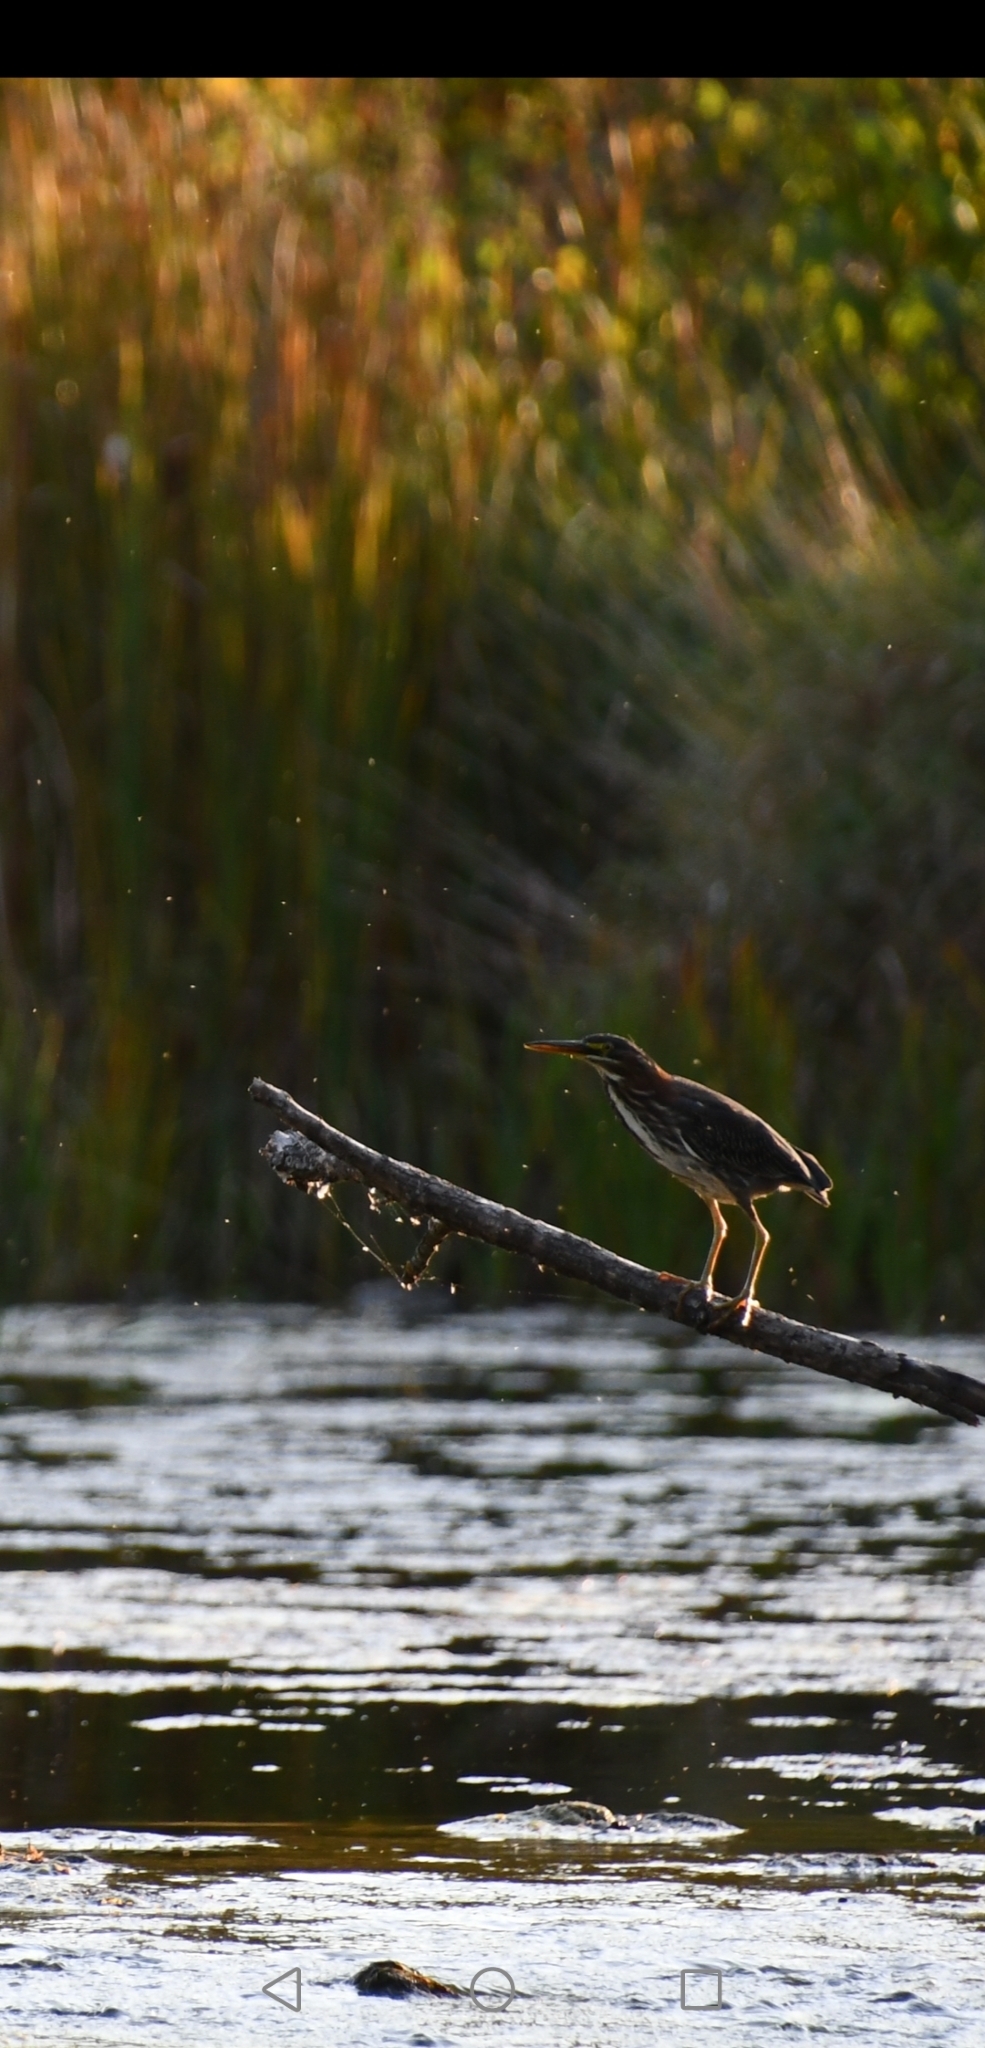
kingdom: Animalia
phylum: Chordata
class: Aves
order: Pelecaniformes
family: Ardeidae
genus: Butorides
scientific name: Butorides virescens
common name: Green heron
